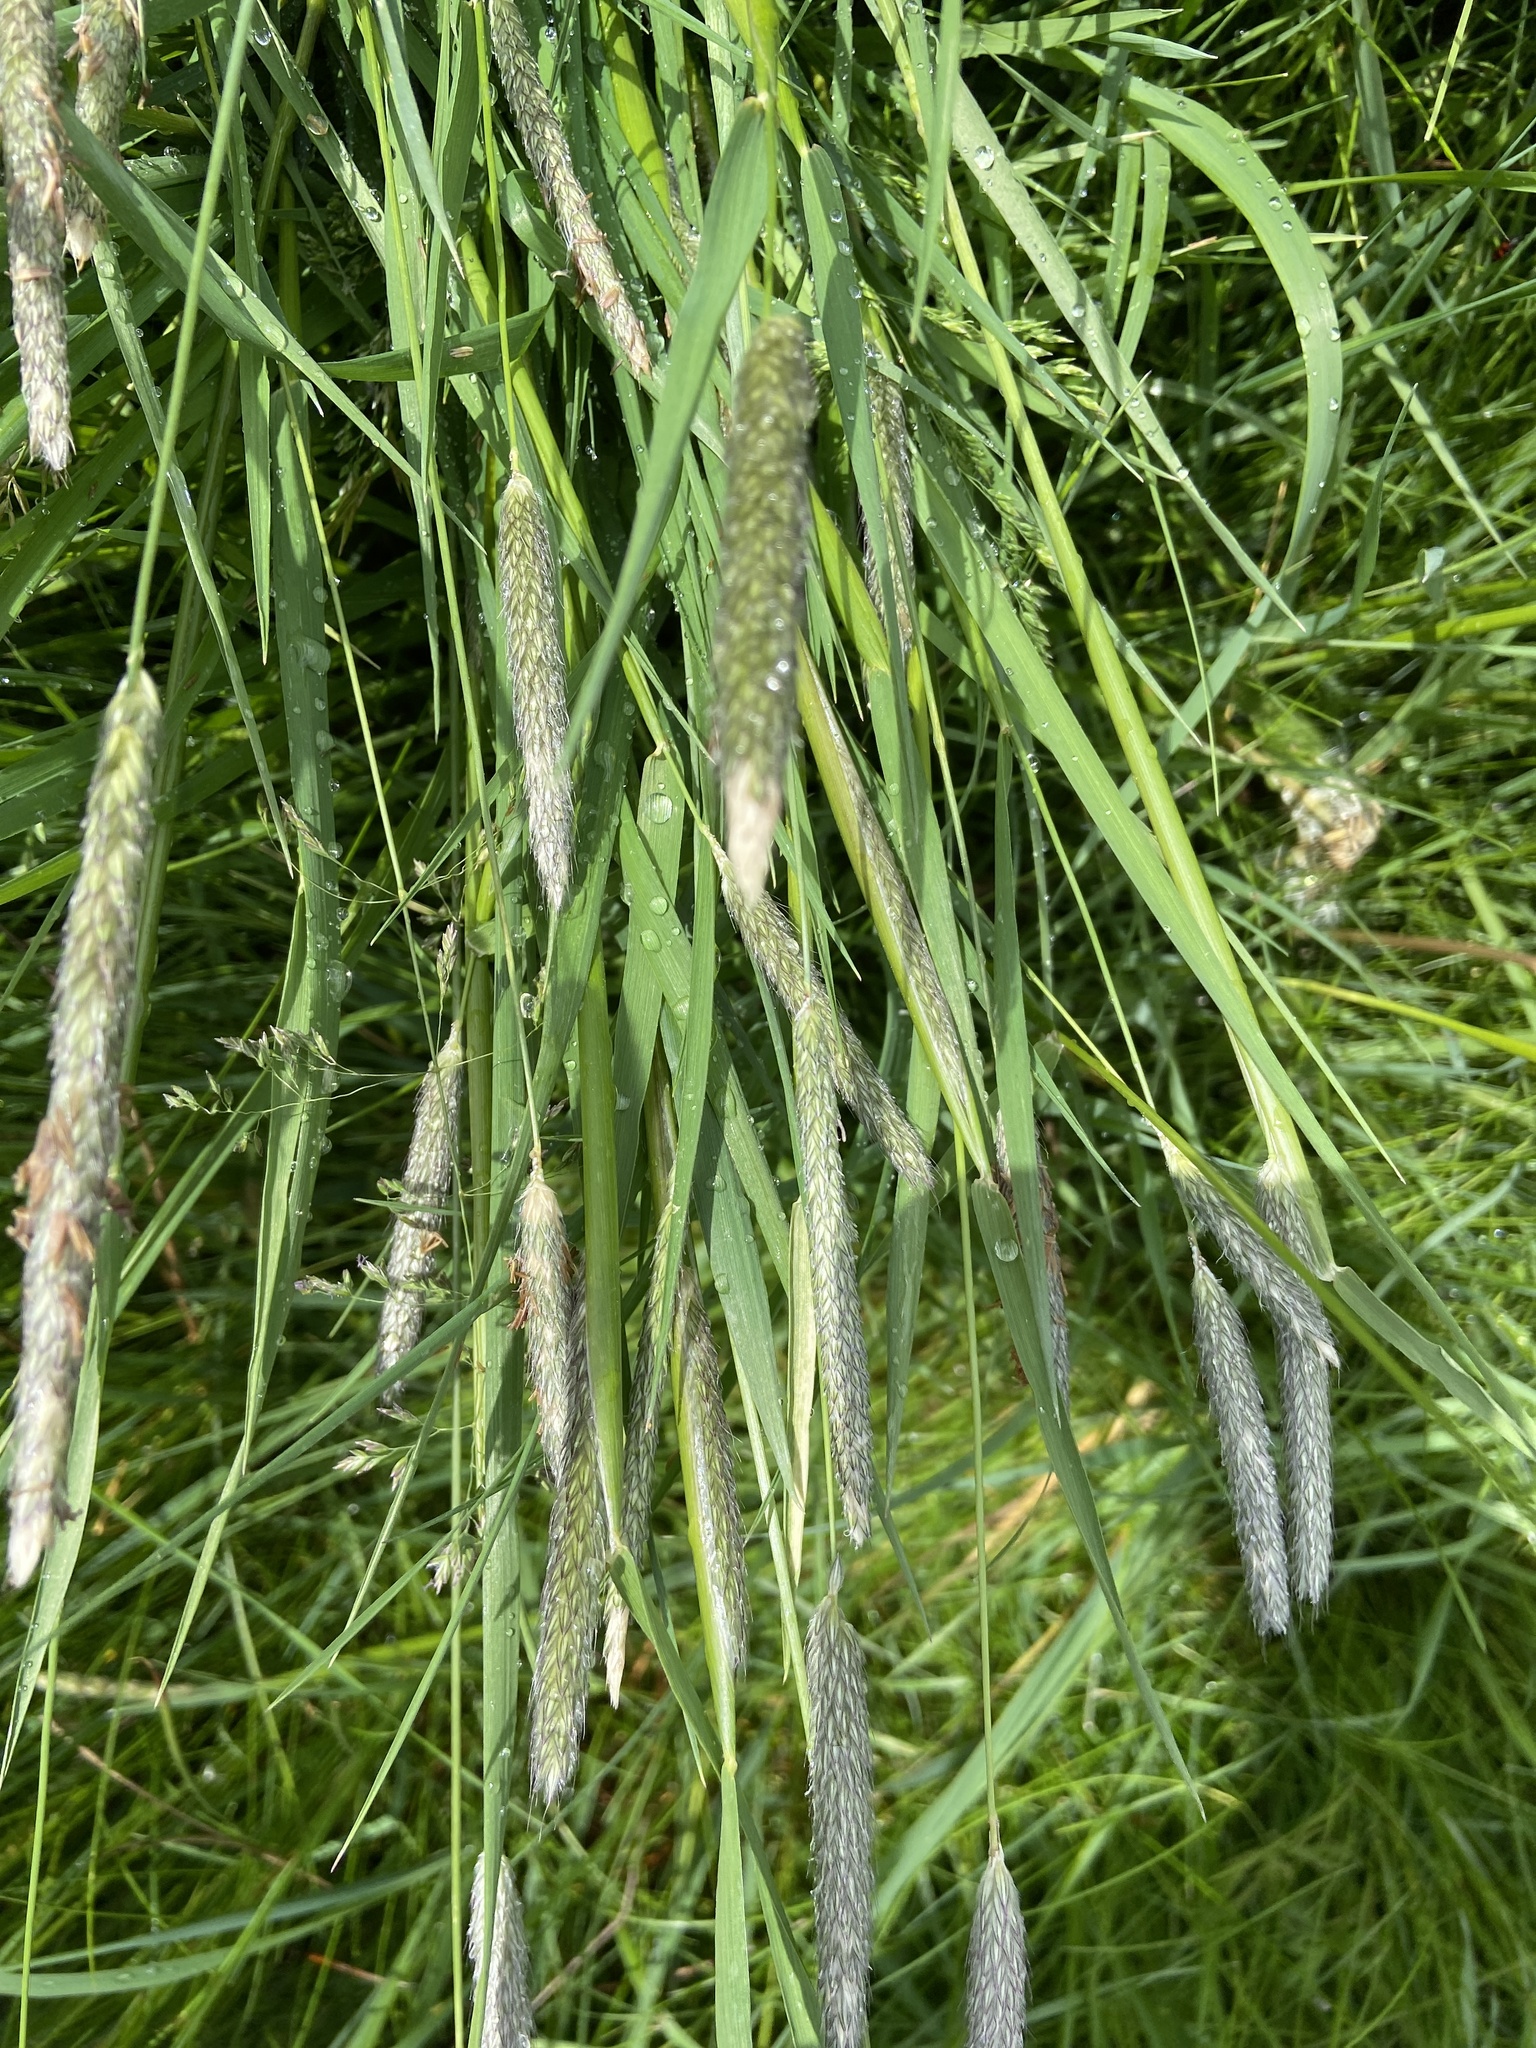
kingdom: Plantae
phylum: Tracheophyta
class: Liliopsida
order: Poales
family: Poaceae
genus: Alopecurus
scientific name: Alopecurus pratensis
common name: Meadow foxtail
